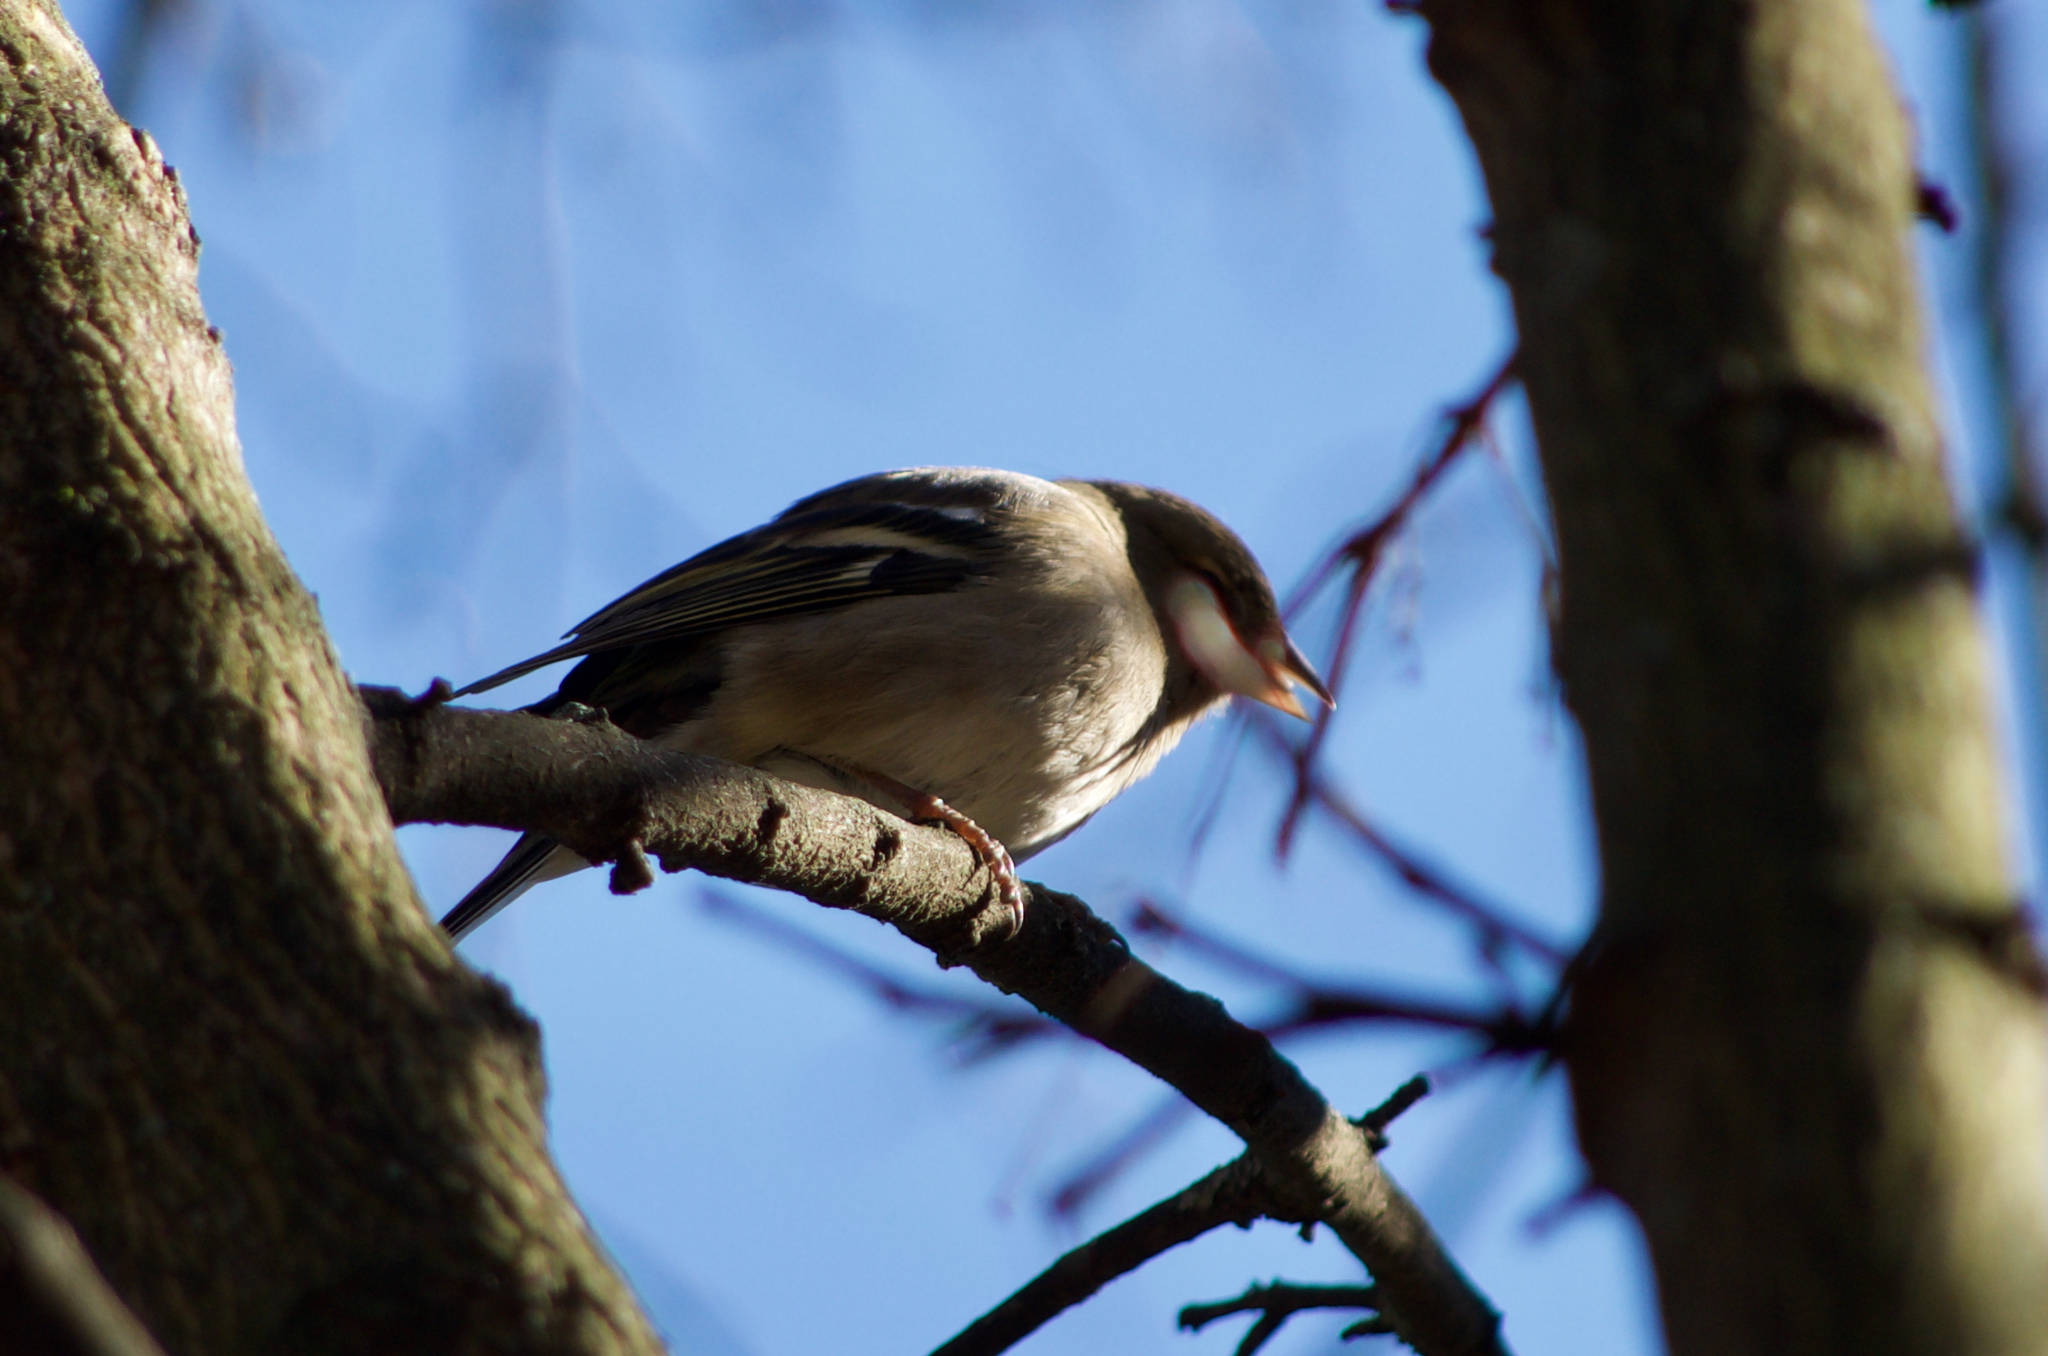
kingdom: Animalia
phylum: Chordata
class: Aves
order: Passeriformes
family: Fringillidae
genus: Fringilla
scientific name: Fringilla coelebs
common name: Common chaffinch
